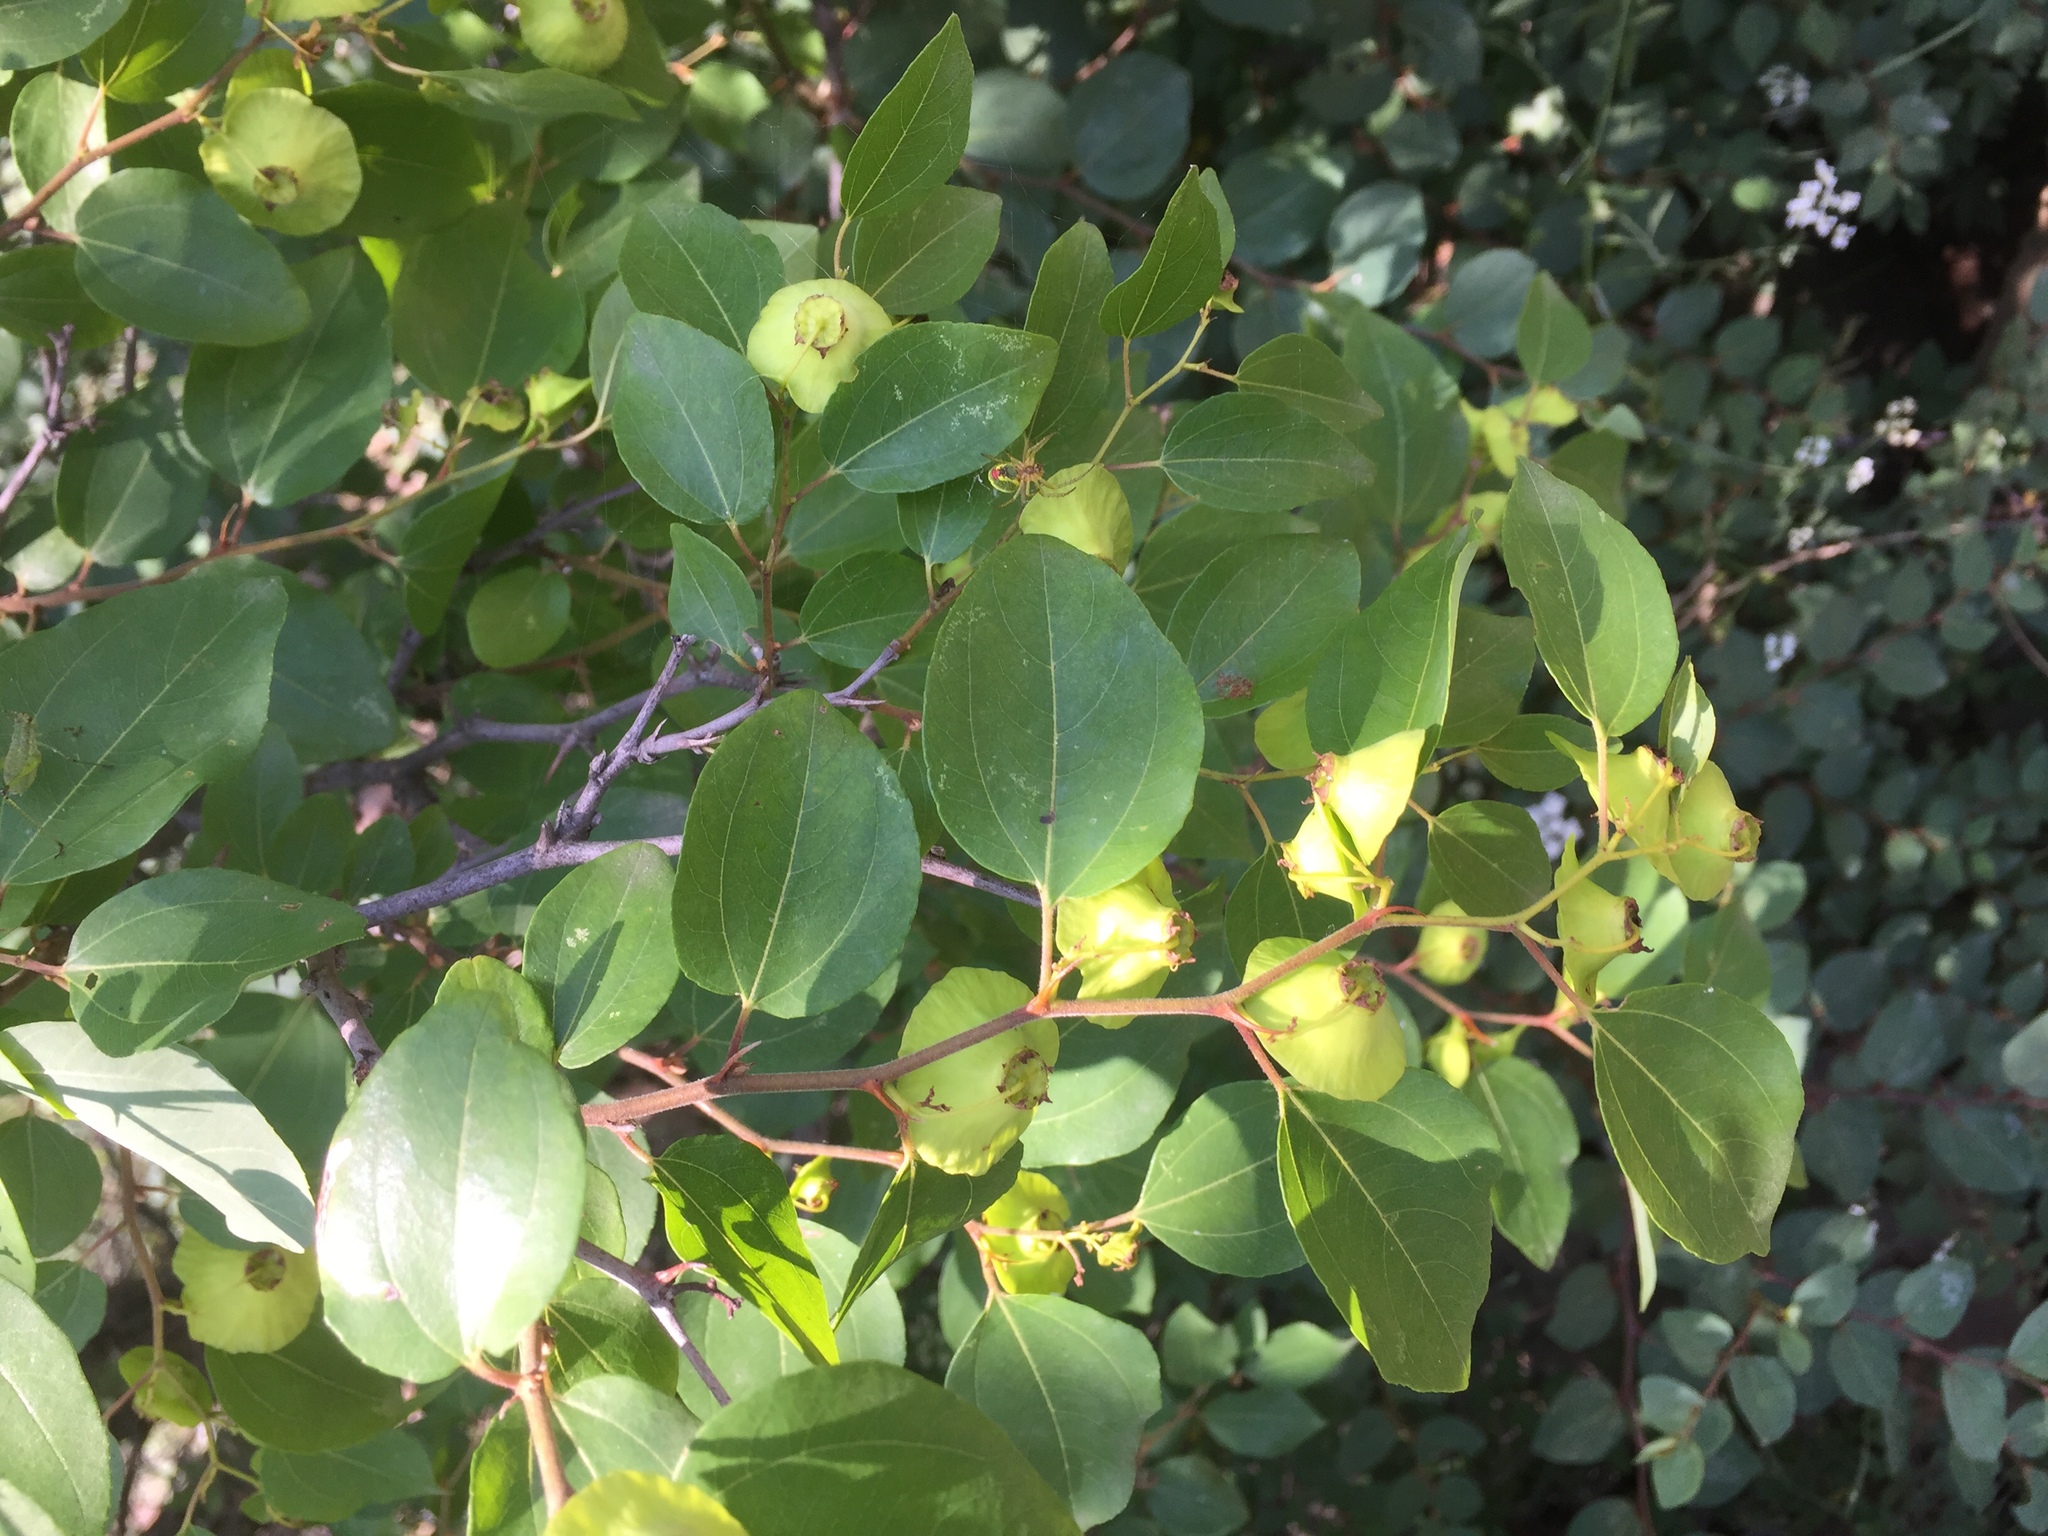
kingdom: Plantae
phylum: Tracheophyta
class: Magnoliopsida
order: Rosales
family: Rhamnaceae
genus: Paliurus
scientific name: Paliurus spina-christi
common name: Jeruselem thorn
